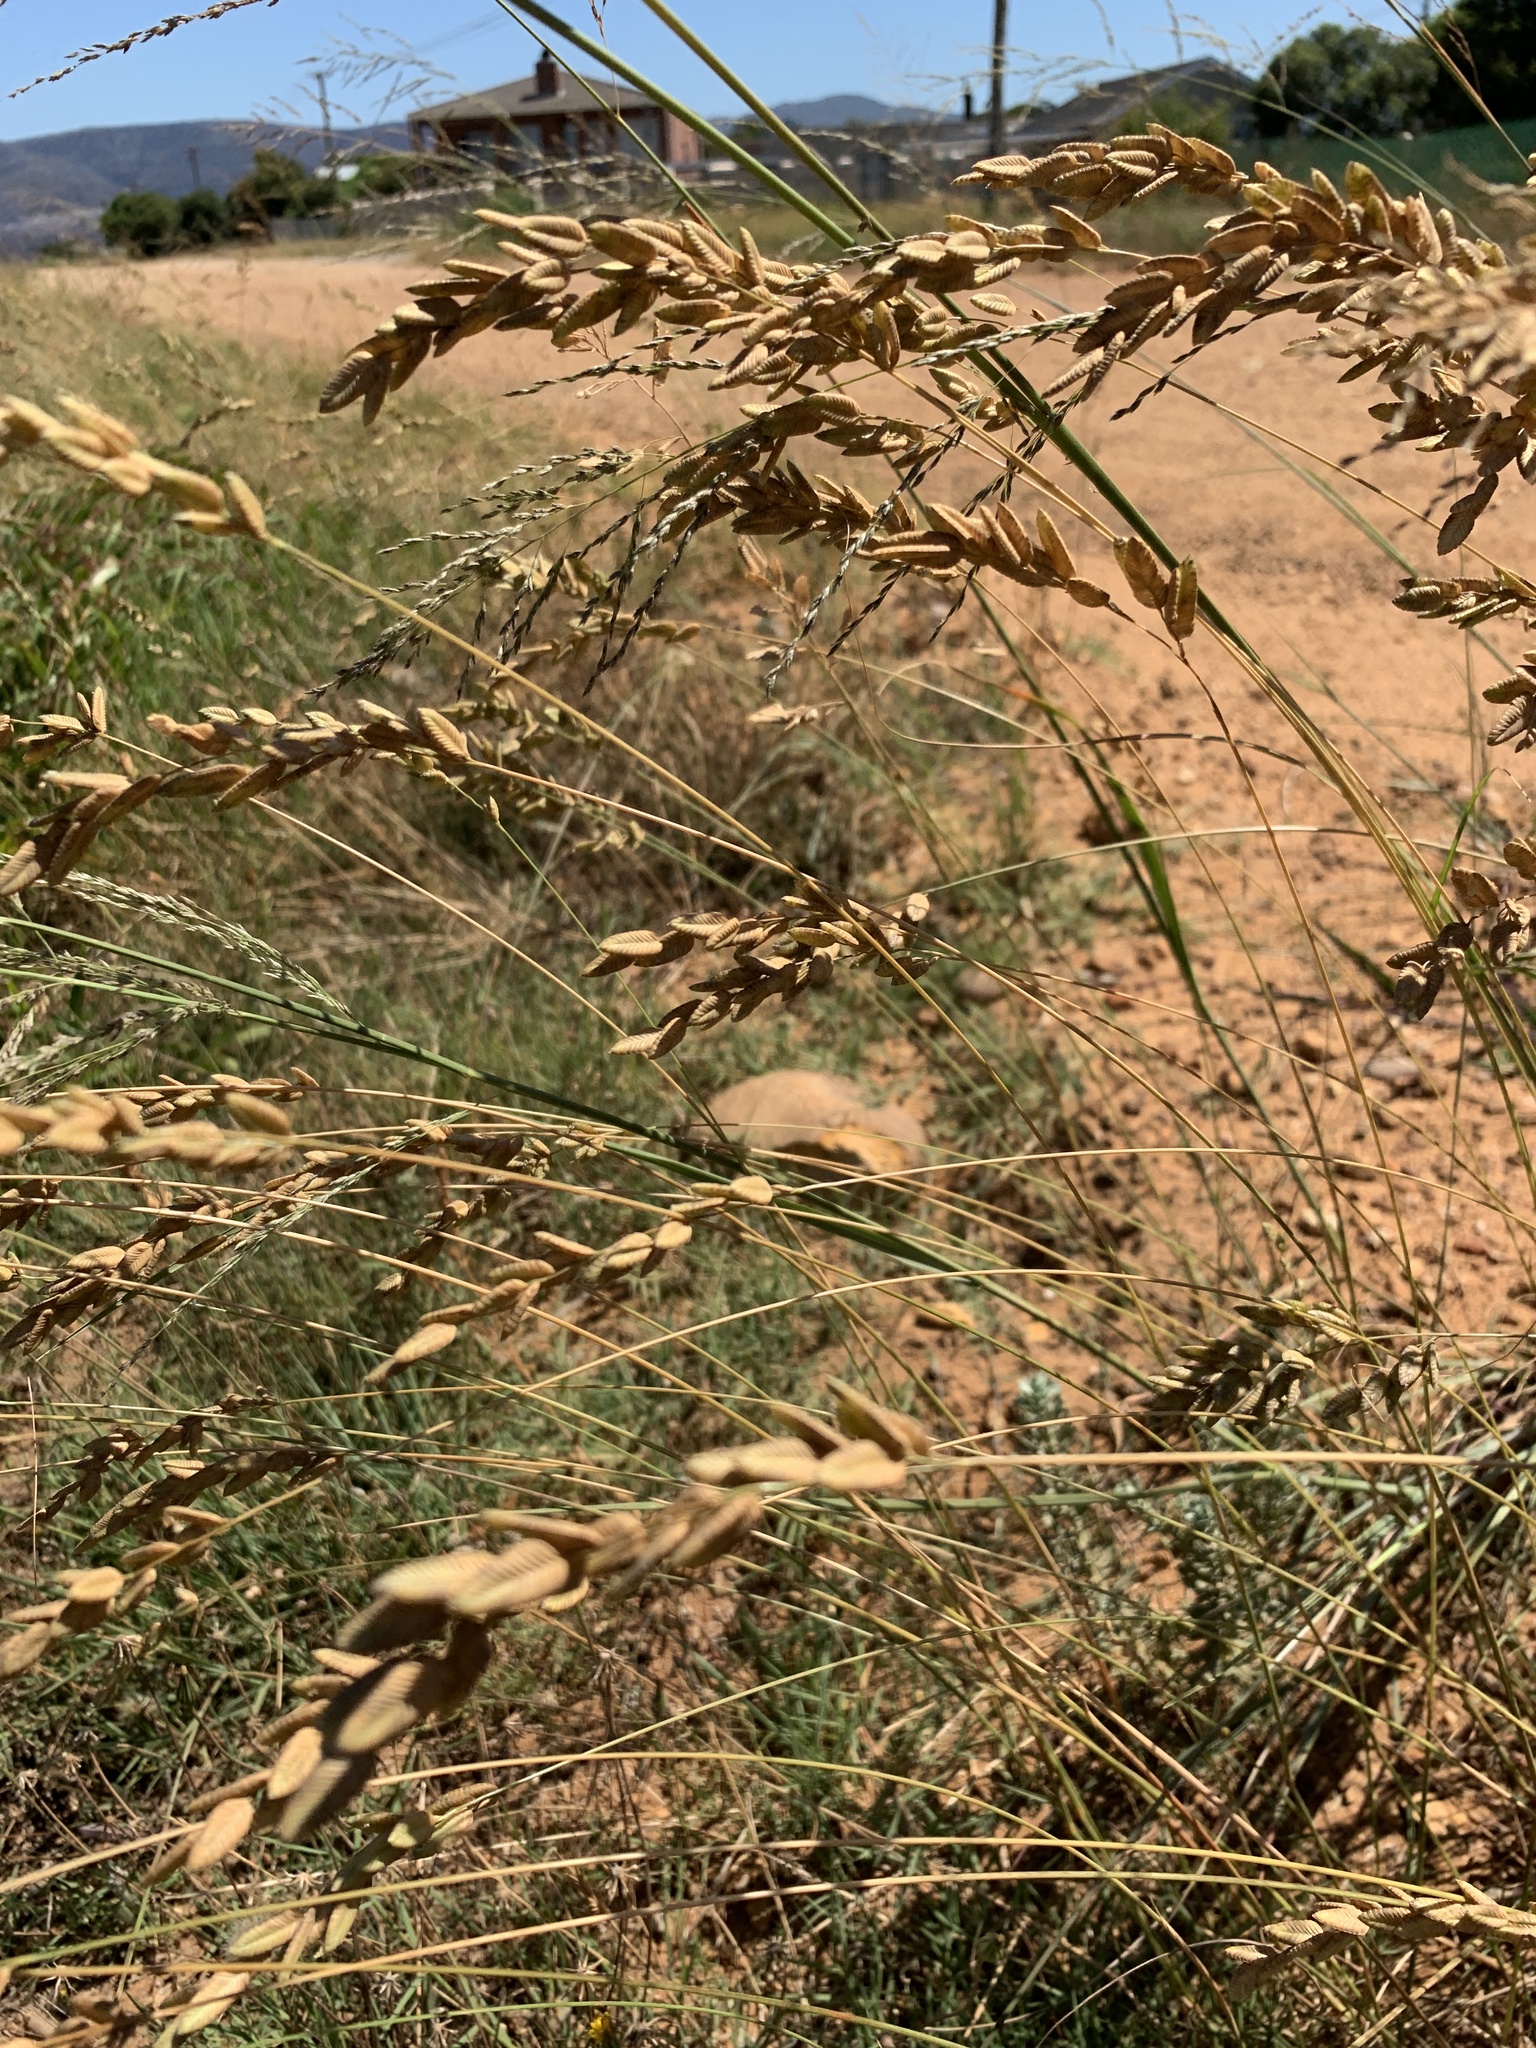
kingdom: Plantae
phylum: Tracheophyta
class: Liliopsida
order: Poales
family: Poaceae
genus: Eragrostis
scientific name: Eragrostis capensis
